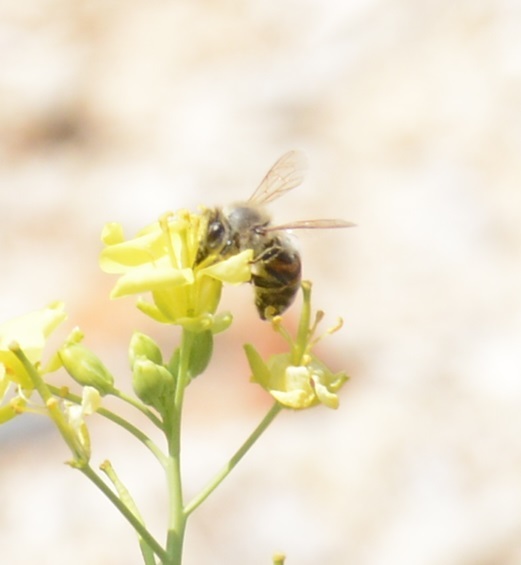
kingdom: Animalia
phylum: Arthropoda
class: Insecta
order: Hymenoptera
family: Apidae
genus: Apis
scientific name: Apis mellifera
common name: Honey bee
